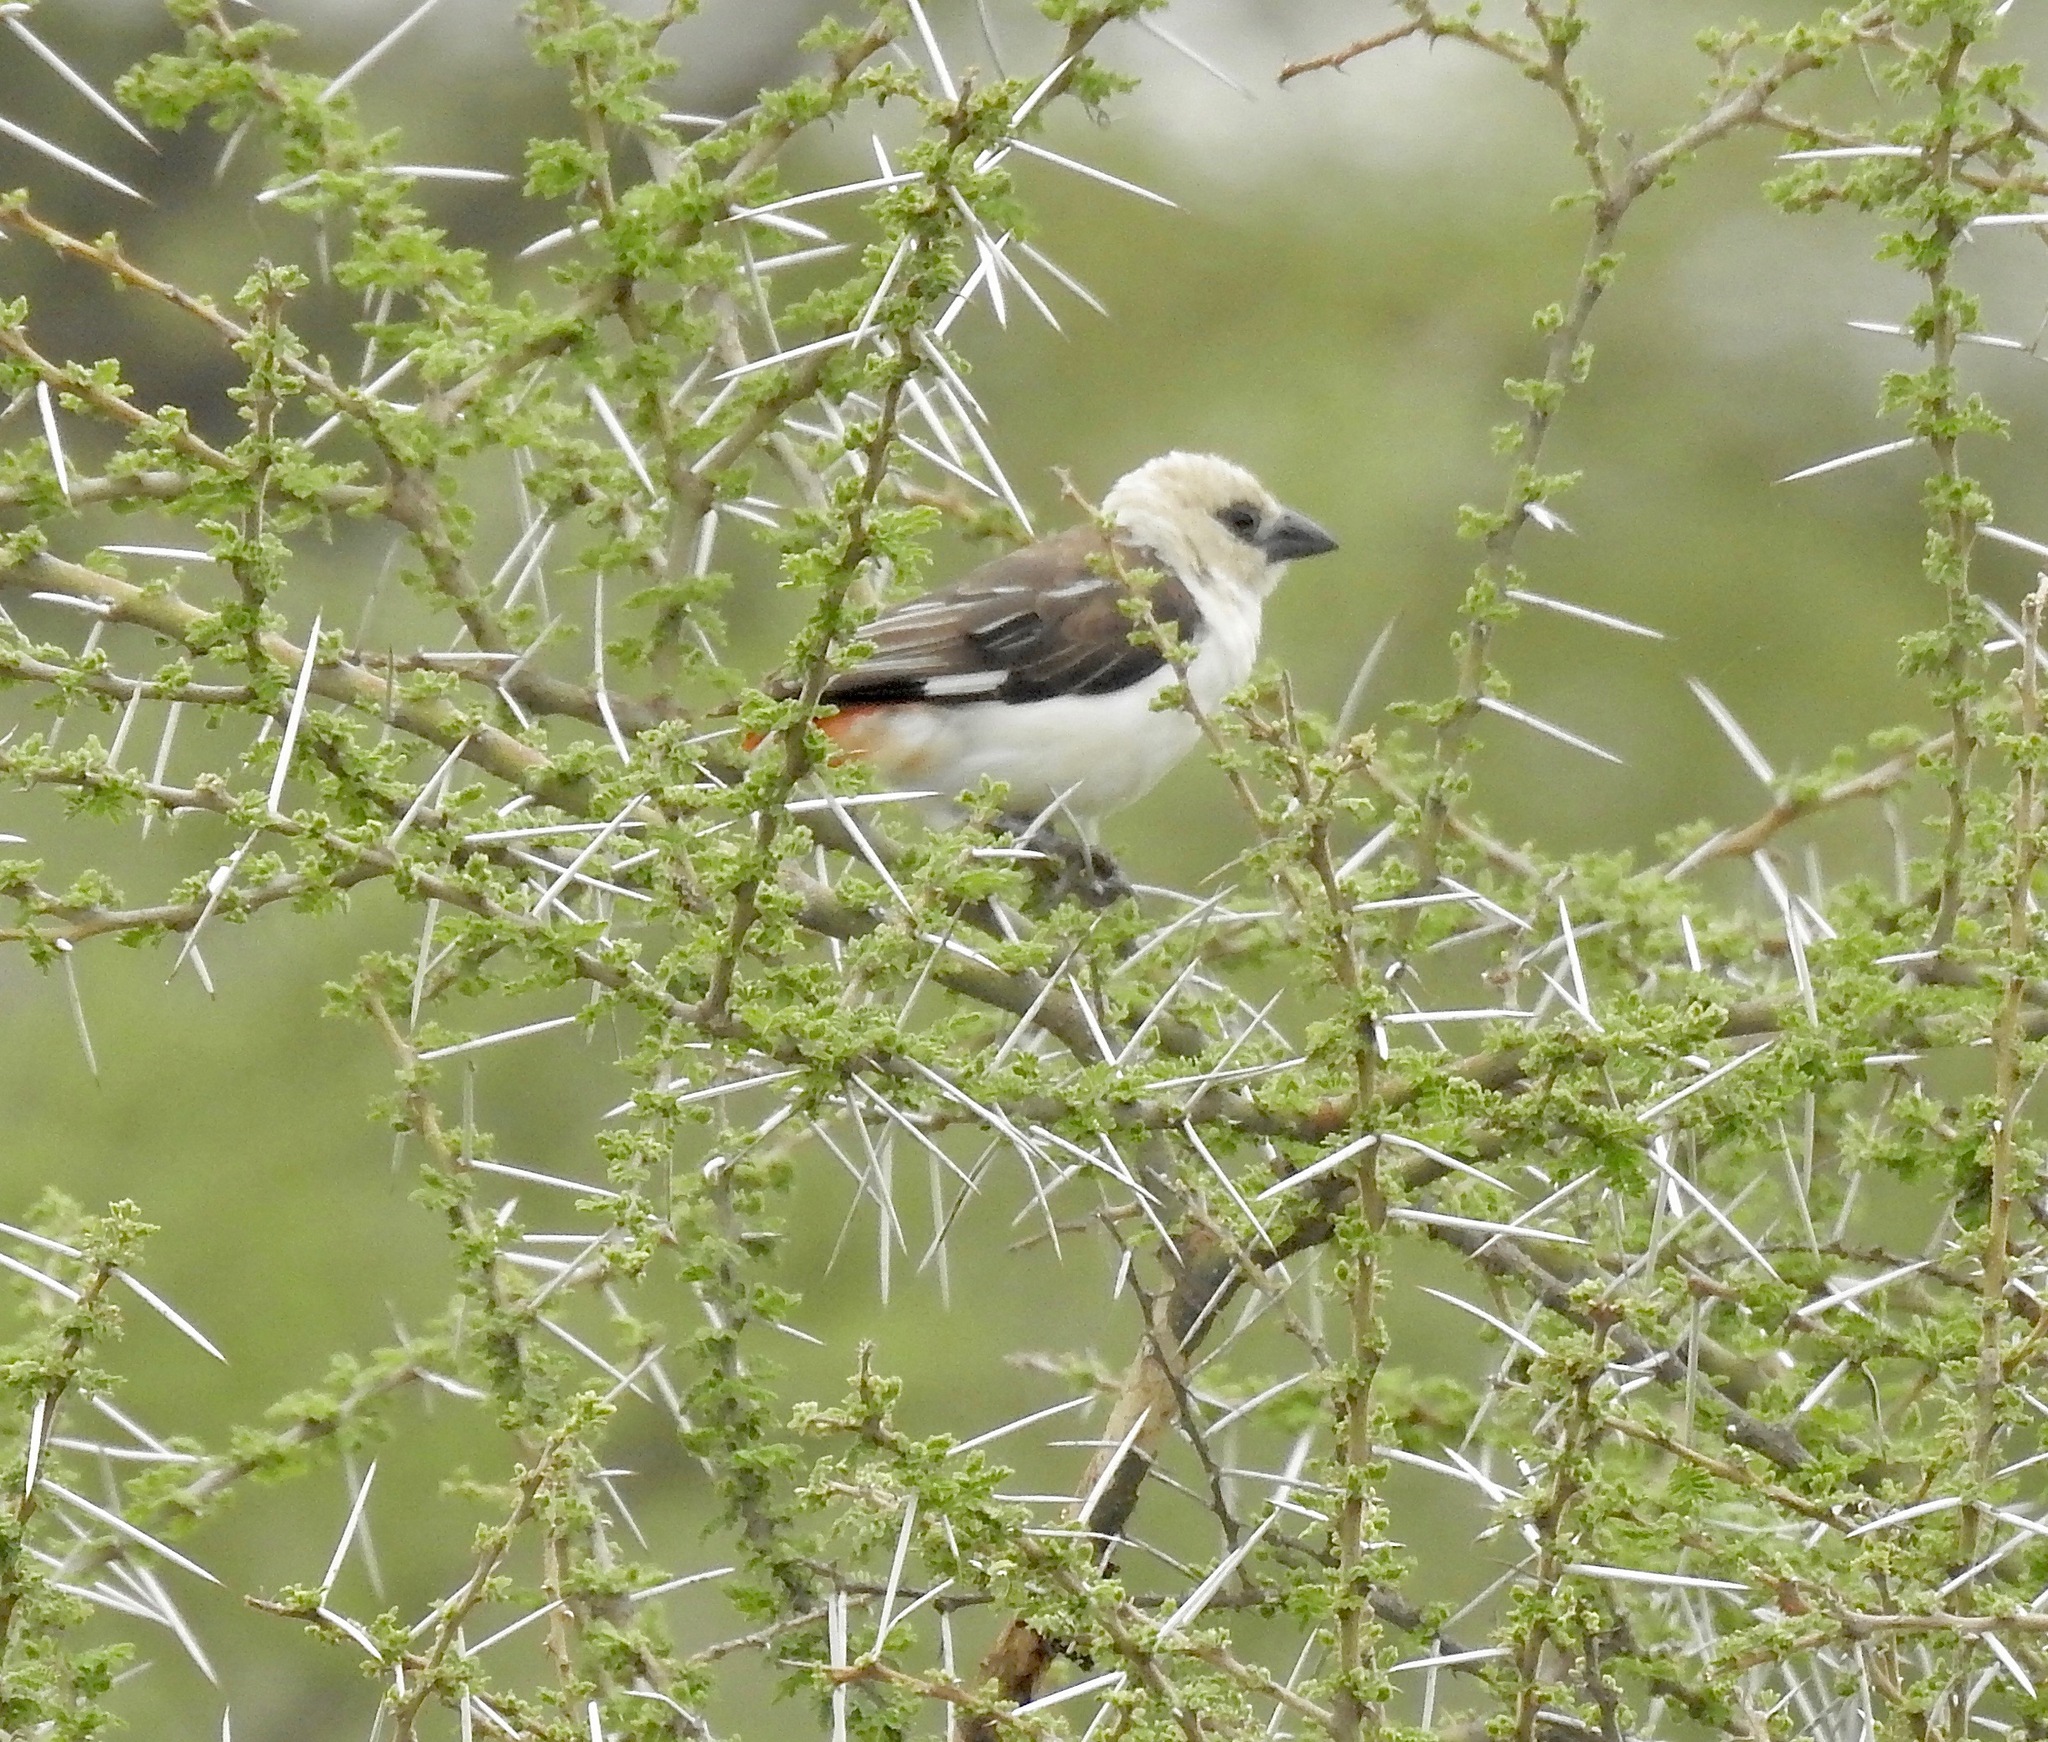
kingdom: Animalia
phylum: Chordata
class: Aves
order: Passeriformes
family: Ploceidae
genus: Dinemellia
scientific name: Dinemellia dinemelli
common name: White-headed buffalo weaver
